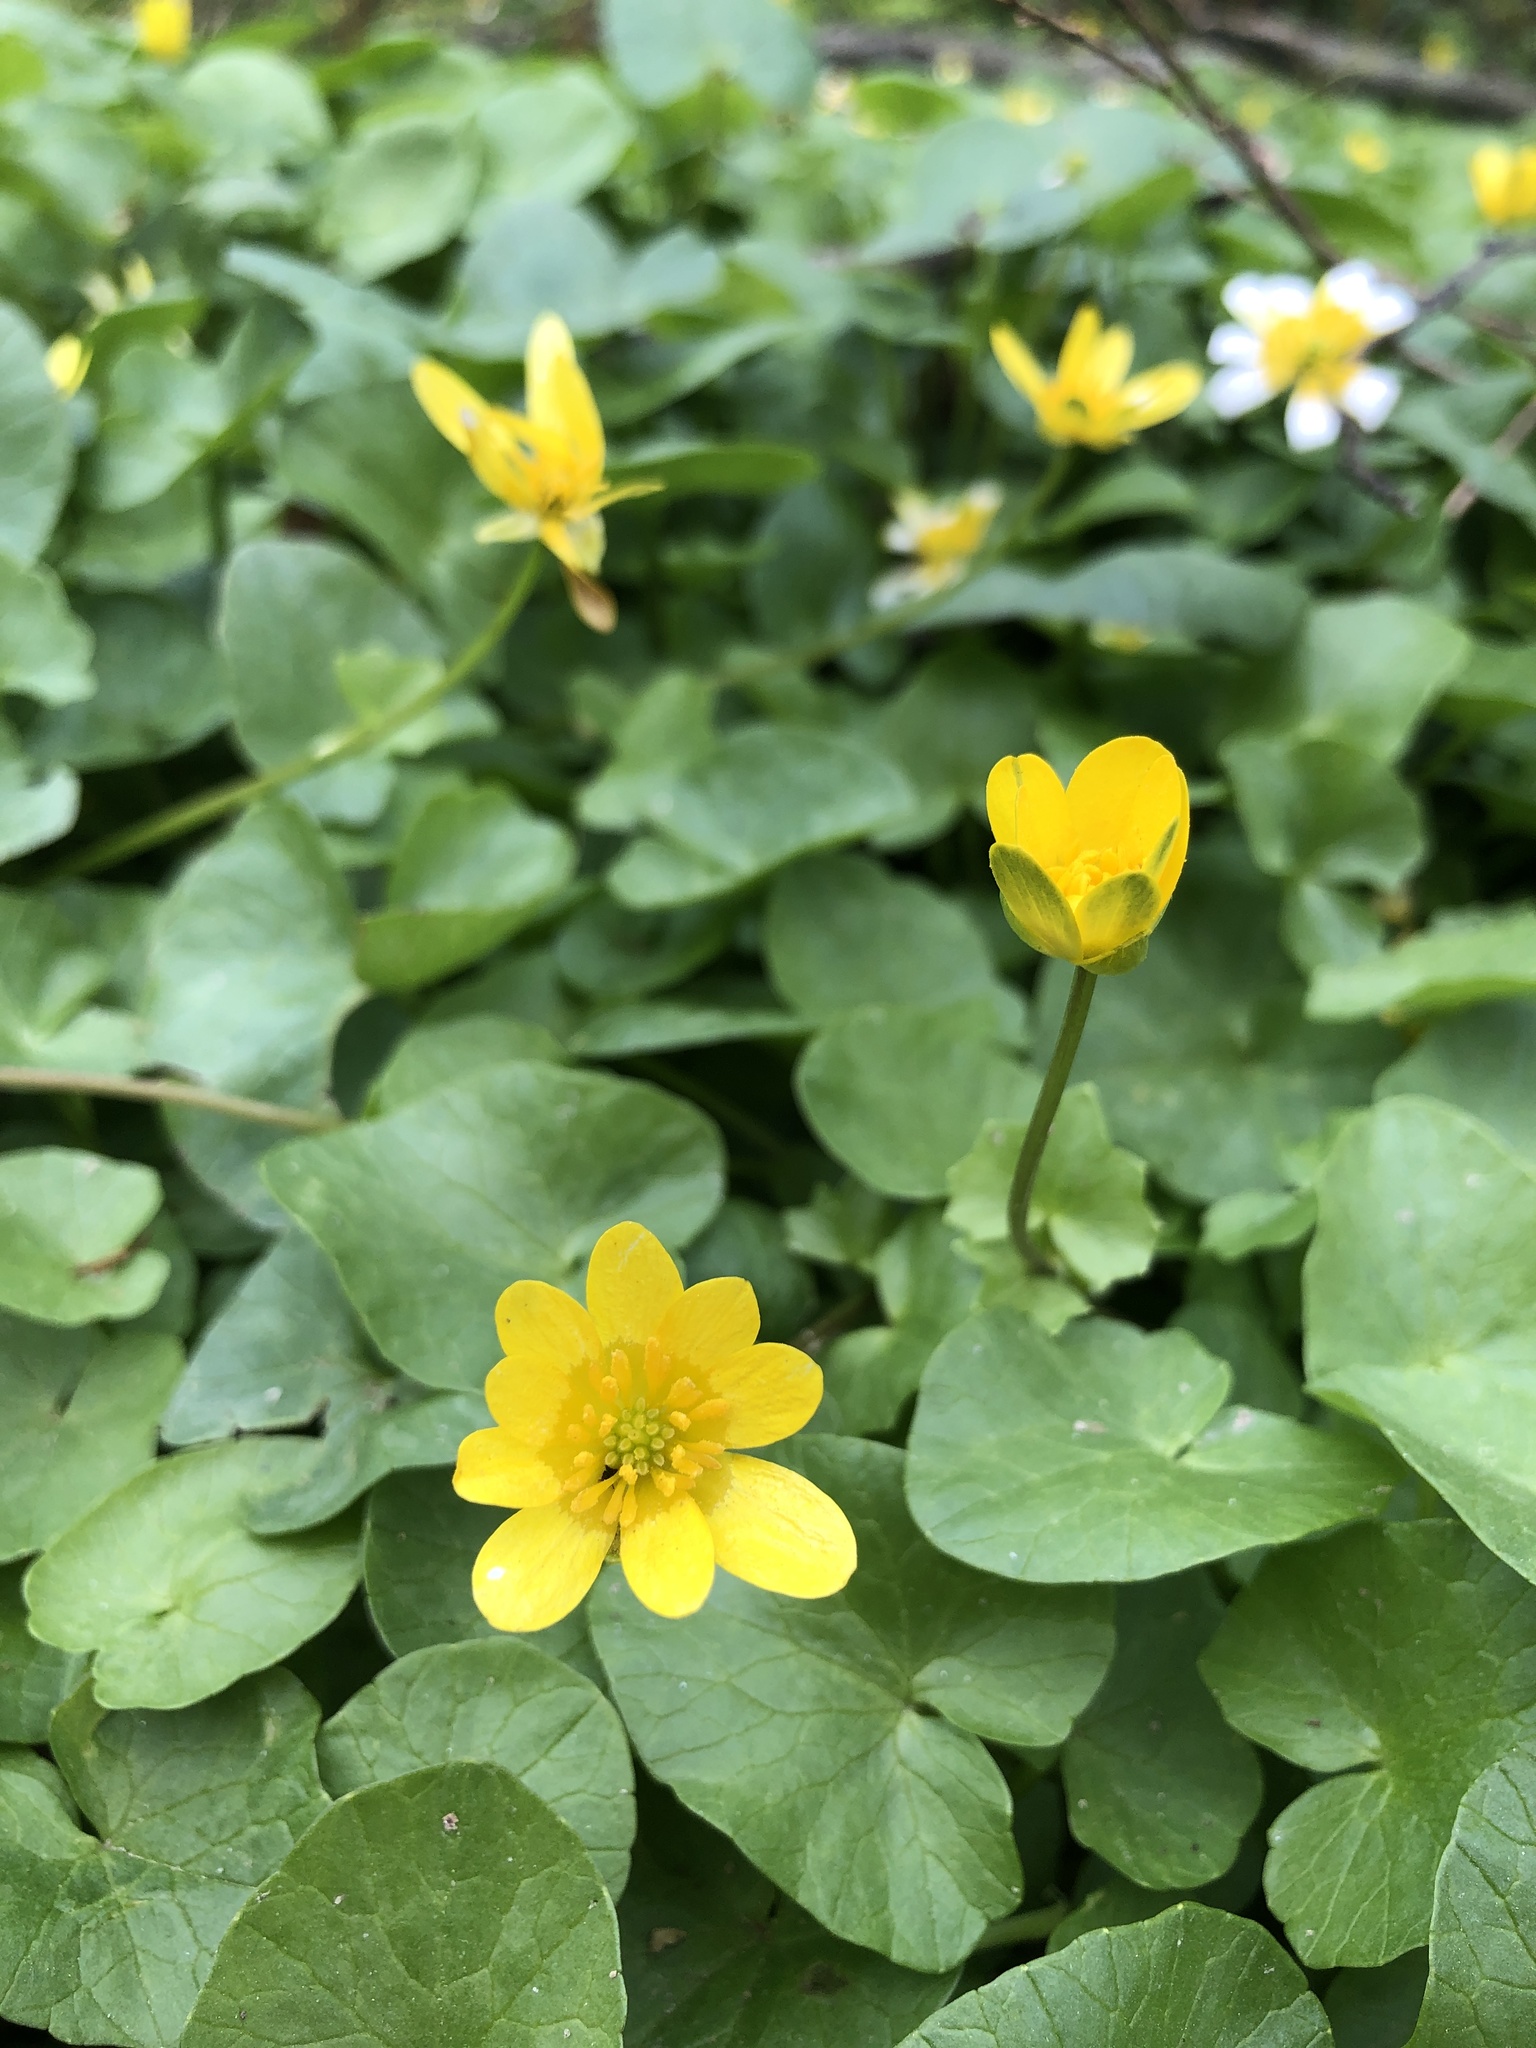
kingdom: Plantae
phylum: Tracheophyta
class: Magnoliopsida
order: Ranunculales
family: Ranunculaceae
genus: Ficaria
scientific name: Ficaria verna
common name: Lesser celandine
